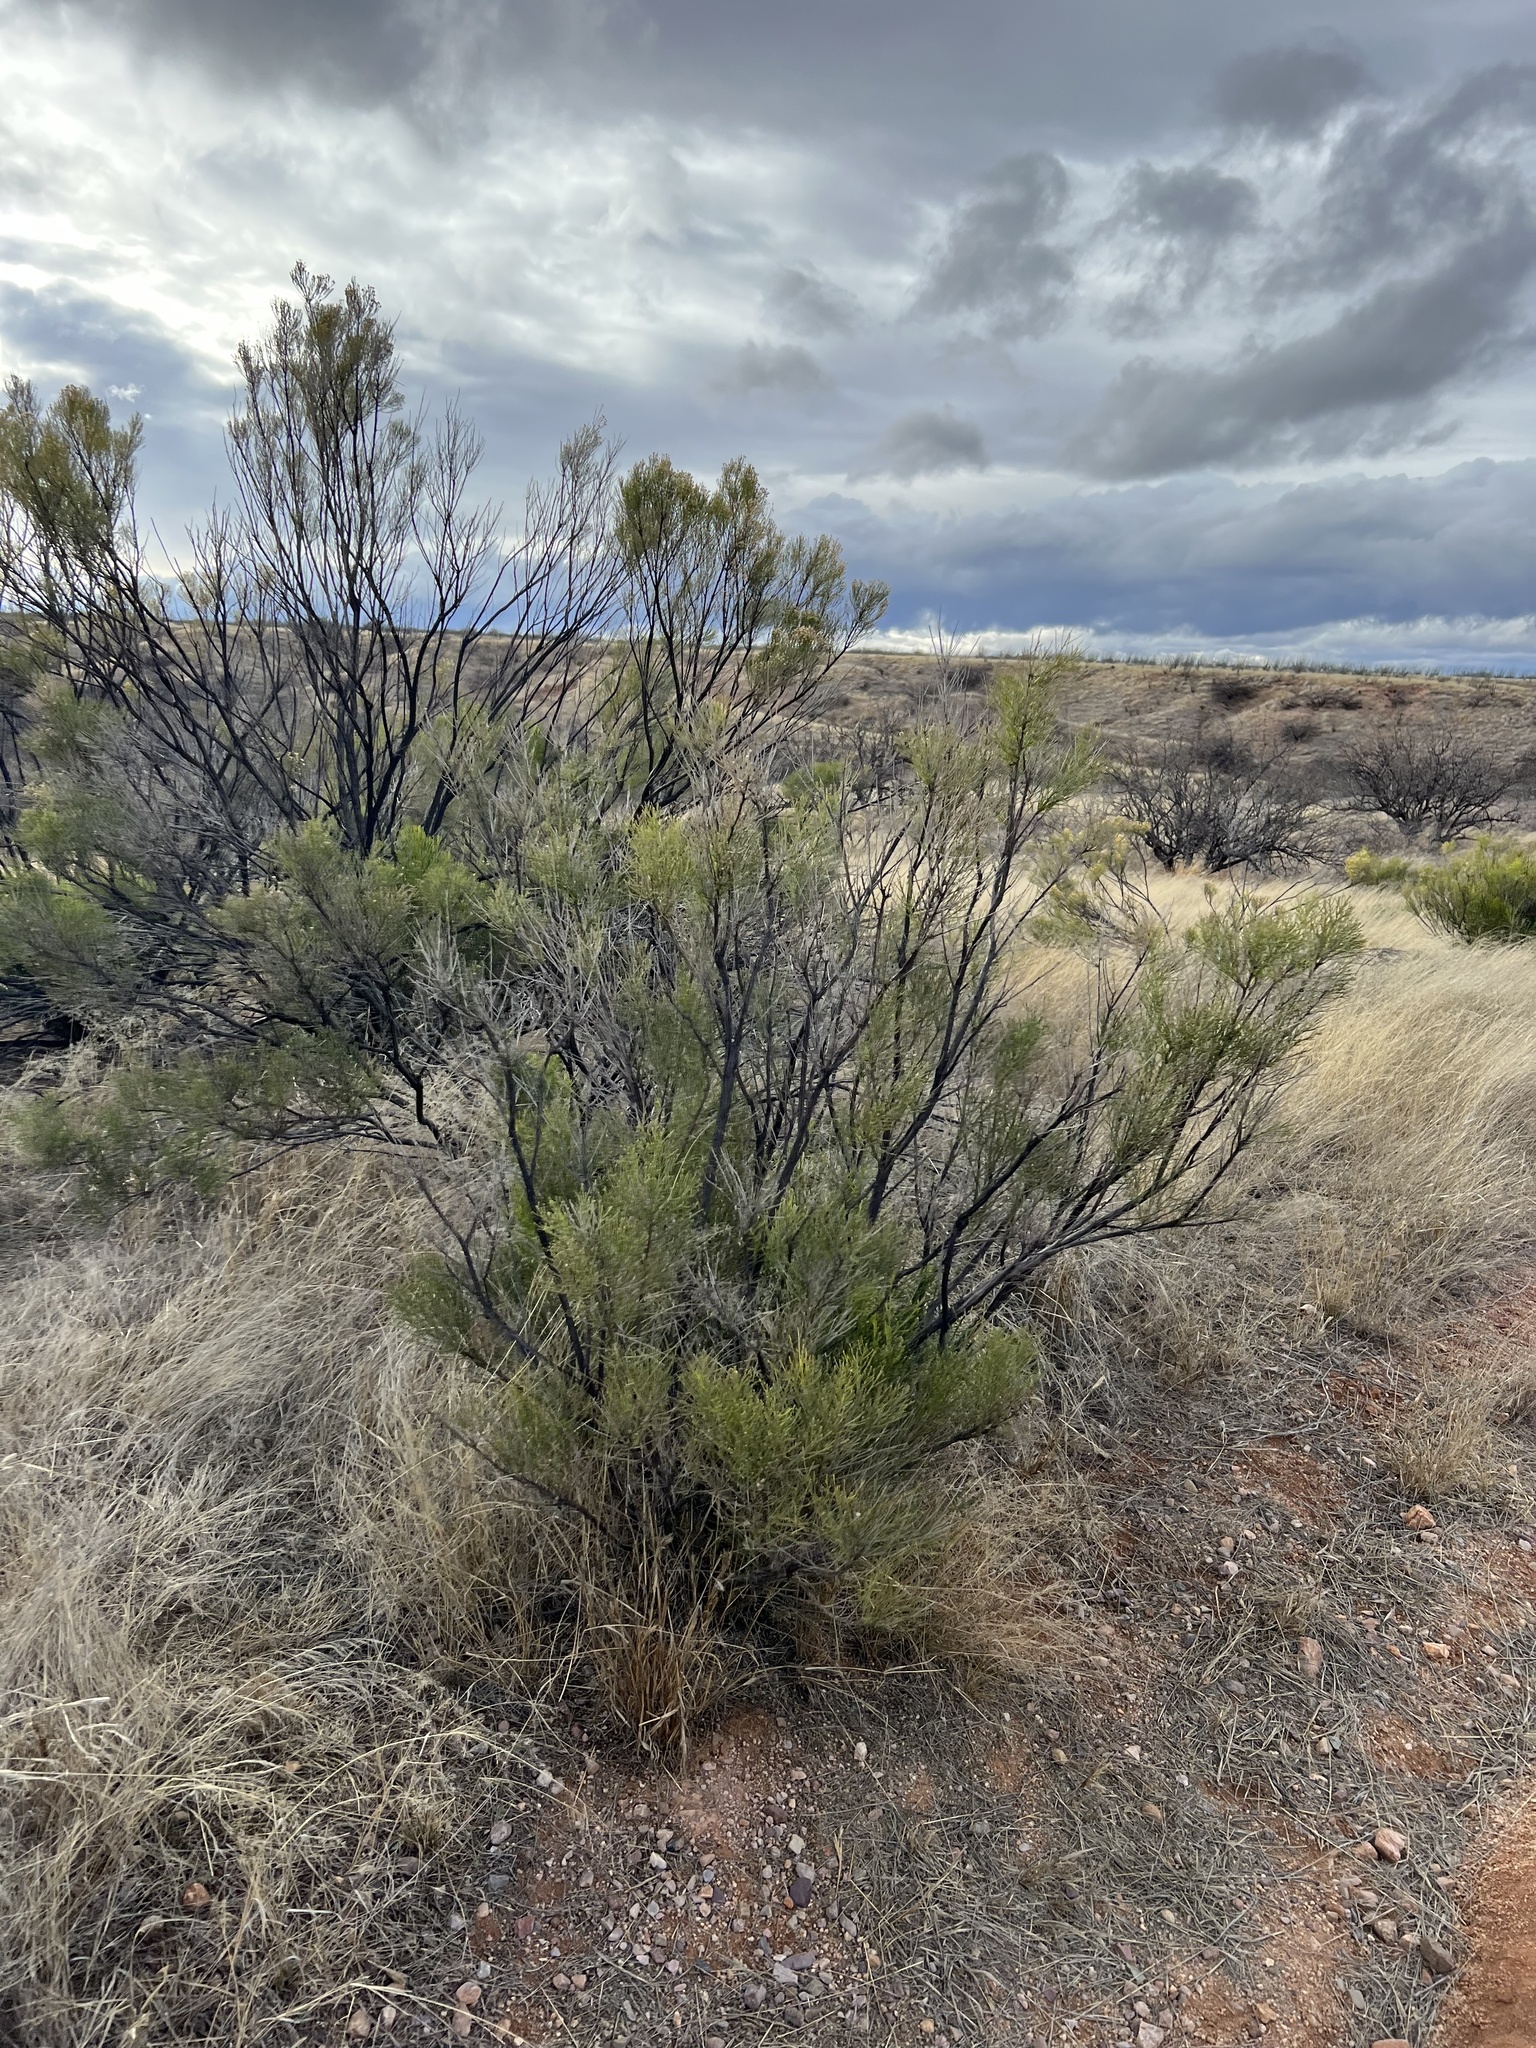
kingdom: Plantae
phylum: Tracheophyta
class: Magnoliopsida
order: Asterales
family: Asteraceae
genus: Baccharis
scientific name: Baccharis sarothroides
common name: Desert-broom
